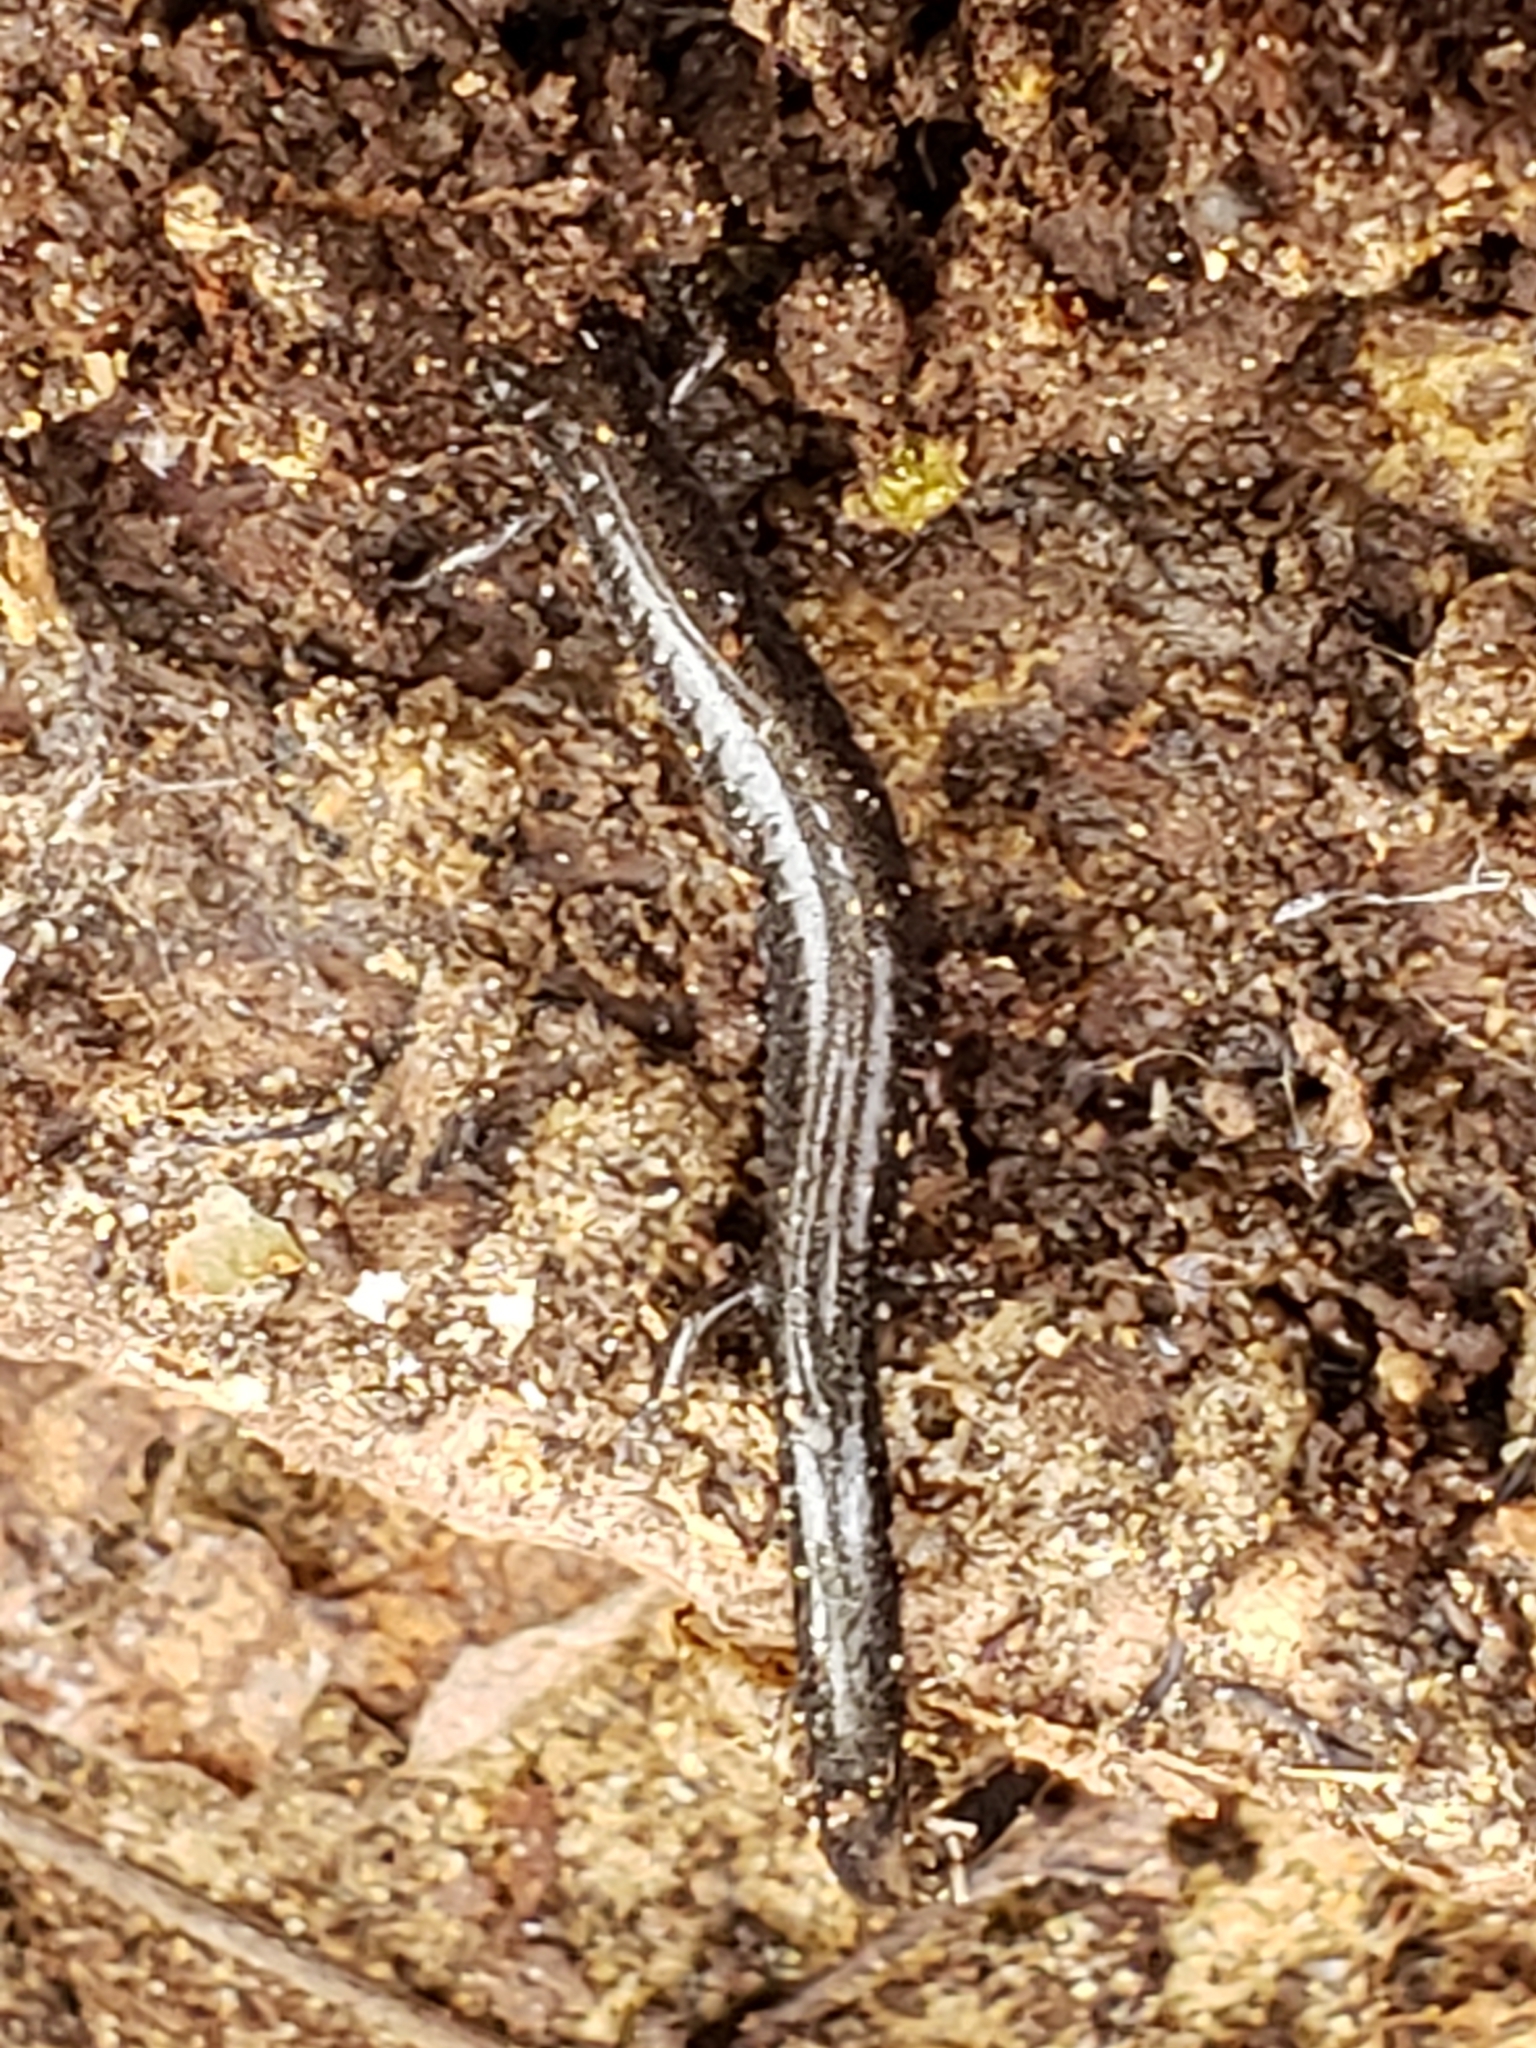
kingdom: Animalia
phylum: Chordata
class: Amphibia
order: Caudata
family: Plethodontidae
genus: Plethodon
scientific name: Plethodon cinereus
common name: Redback salamander
